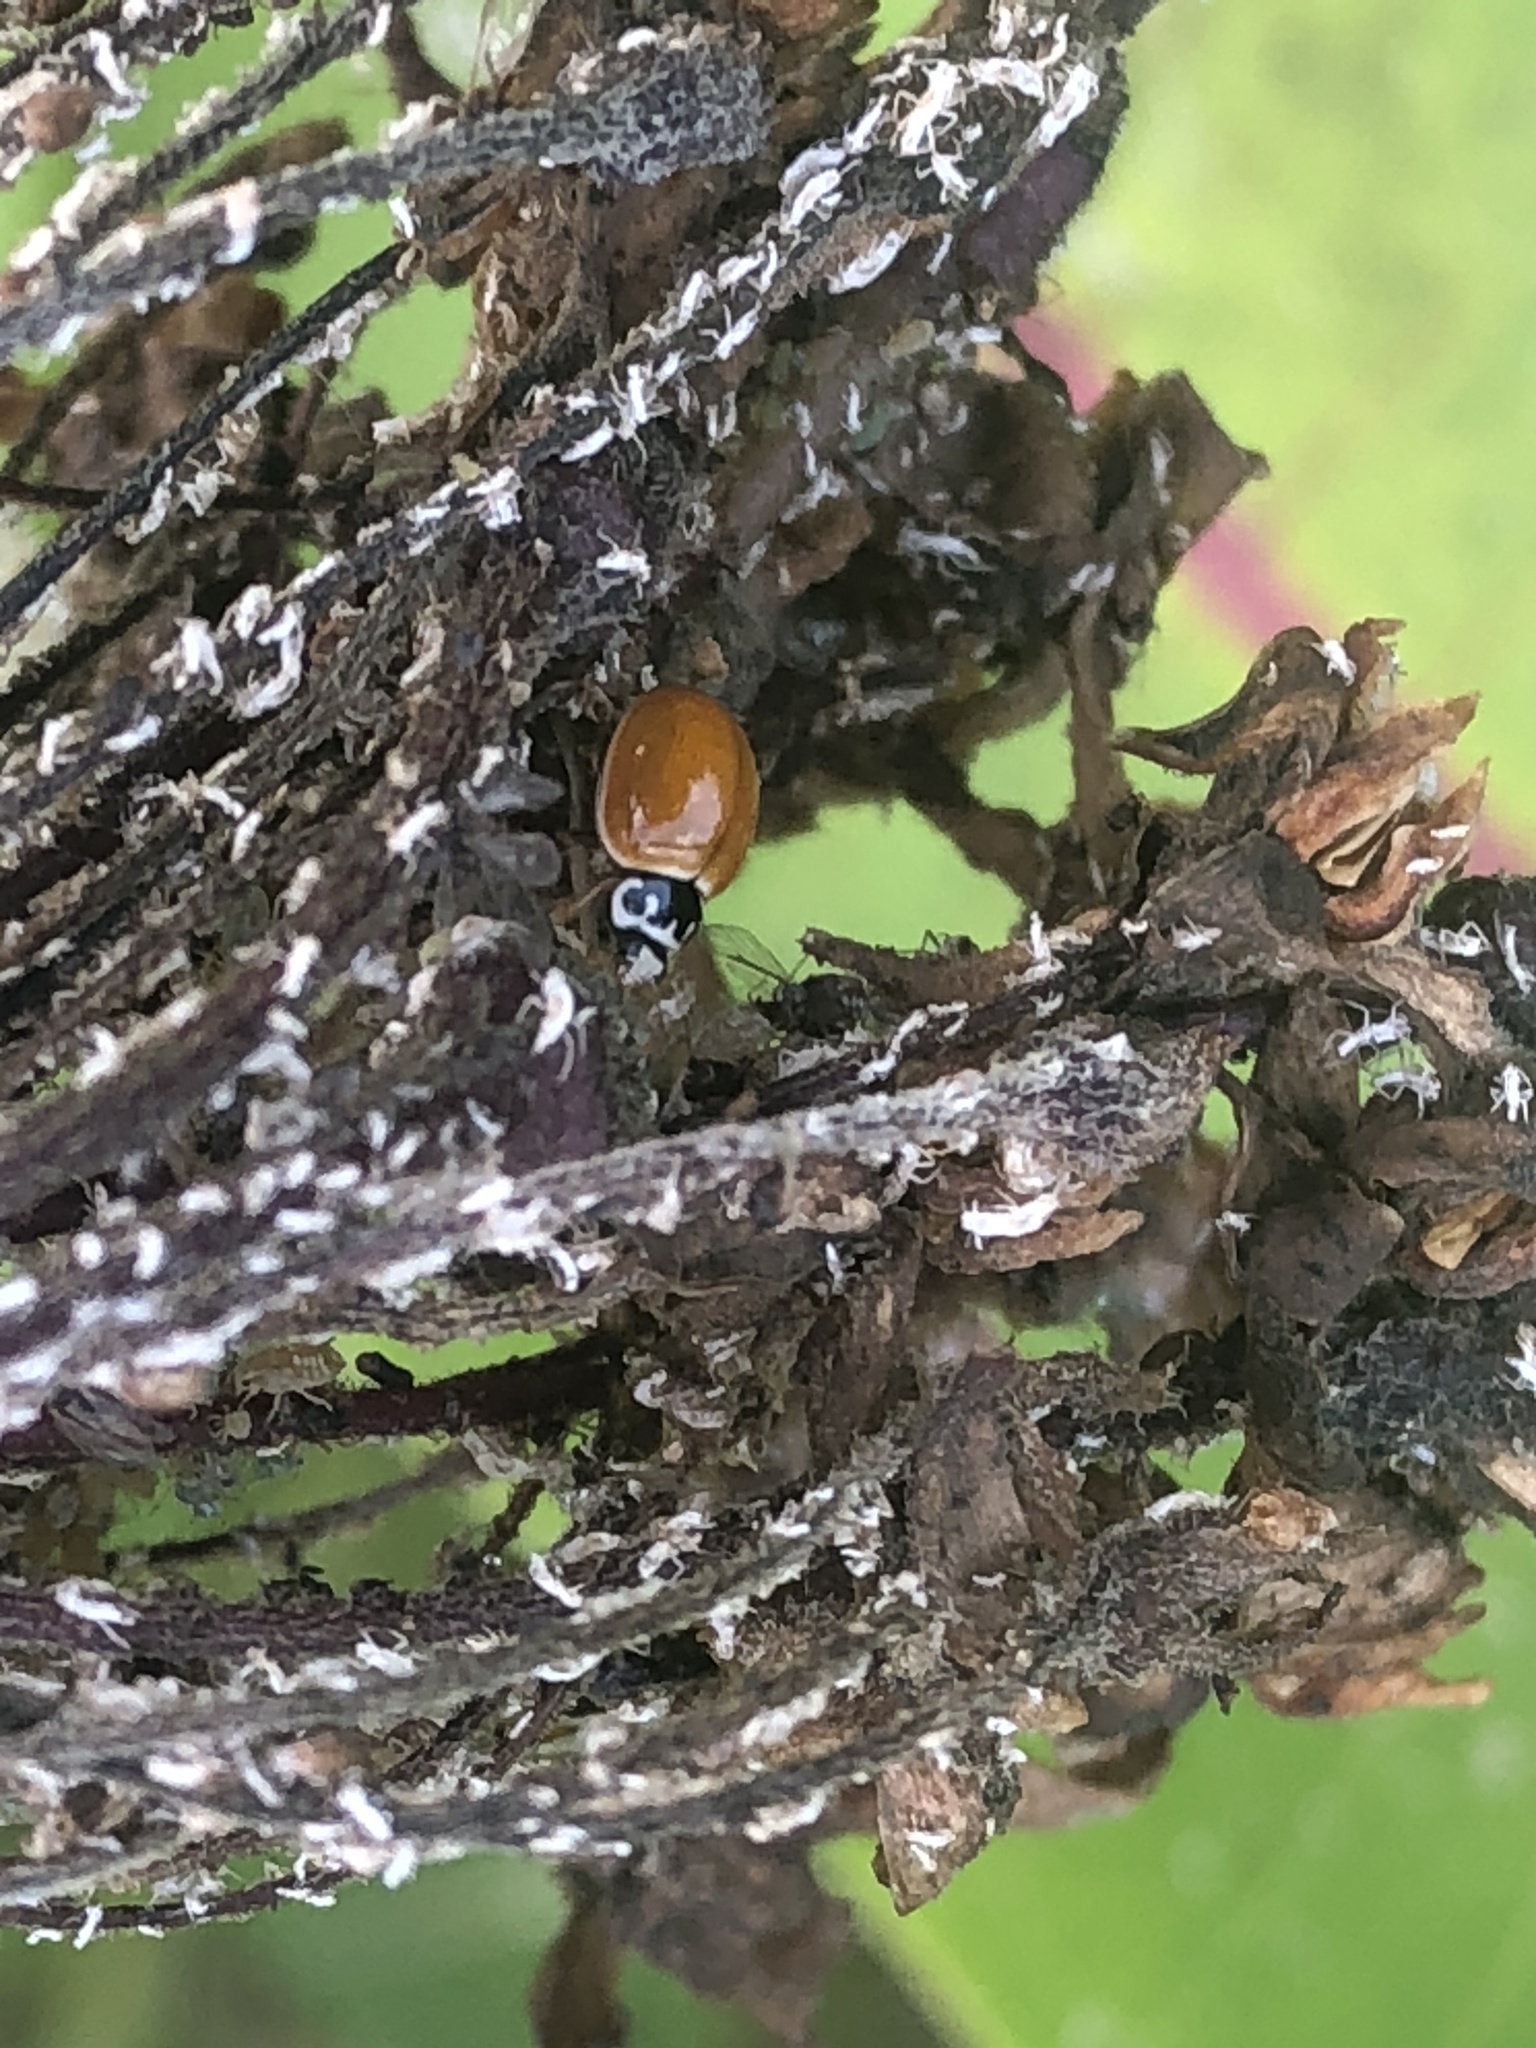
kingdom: Animalia
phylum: Arthropoda
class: Insecta
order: Coleoptera
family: Coccinellidae
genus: Cycloneda
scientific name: Cycloneda munda
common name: Polished lady beetle
